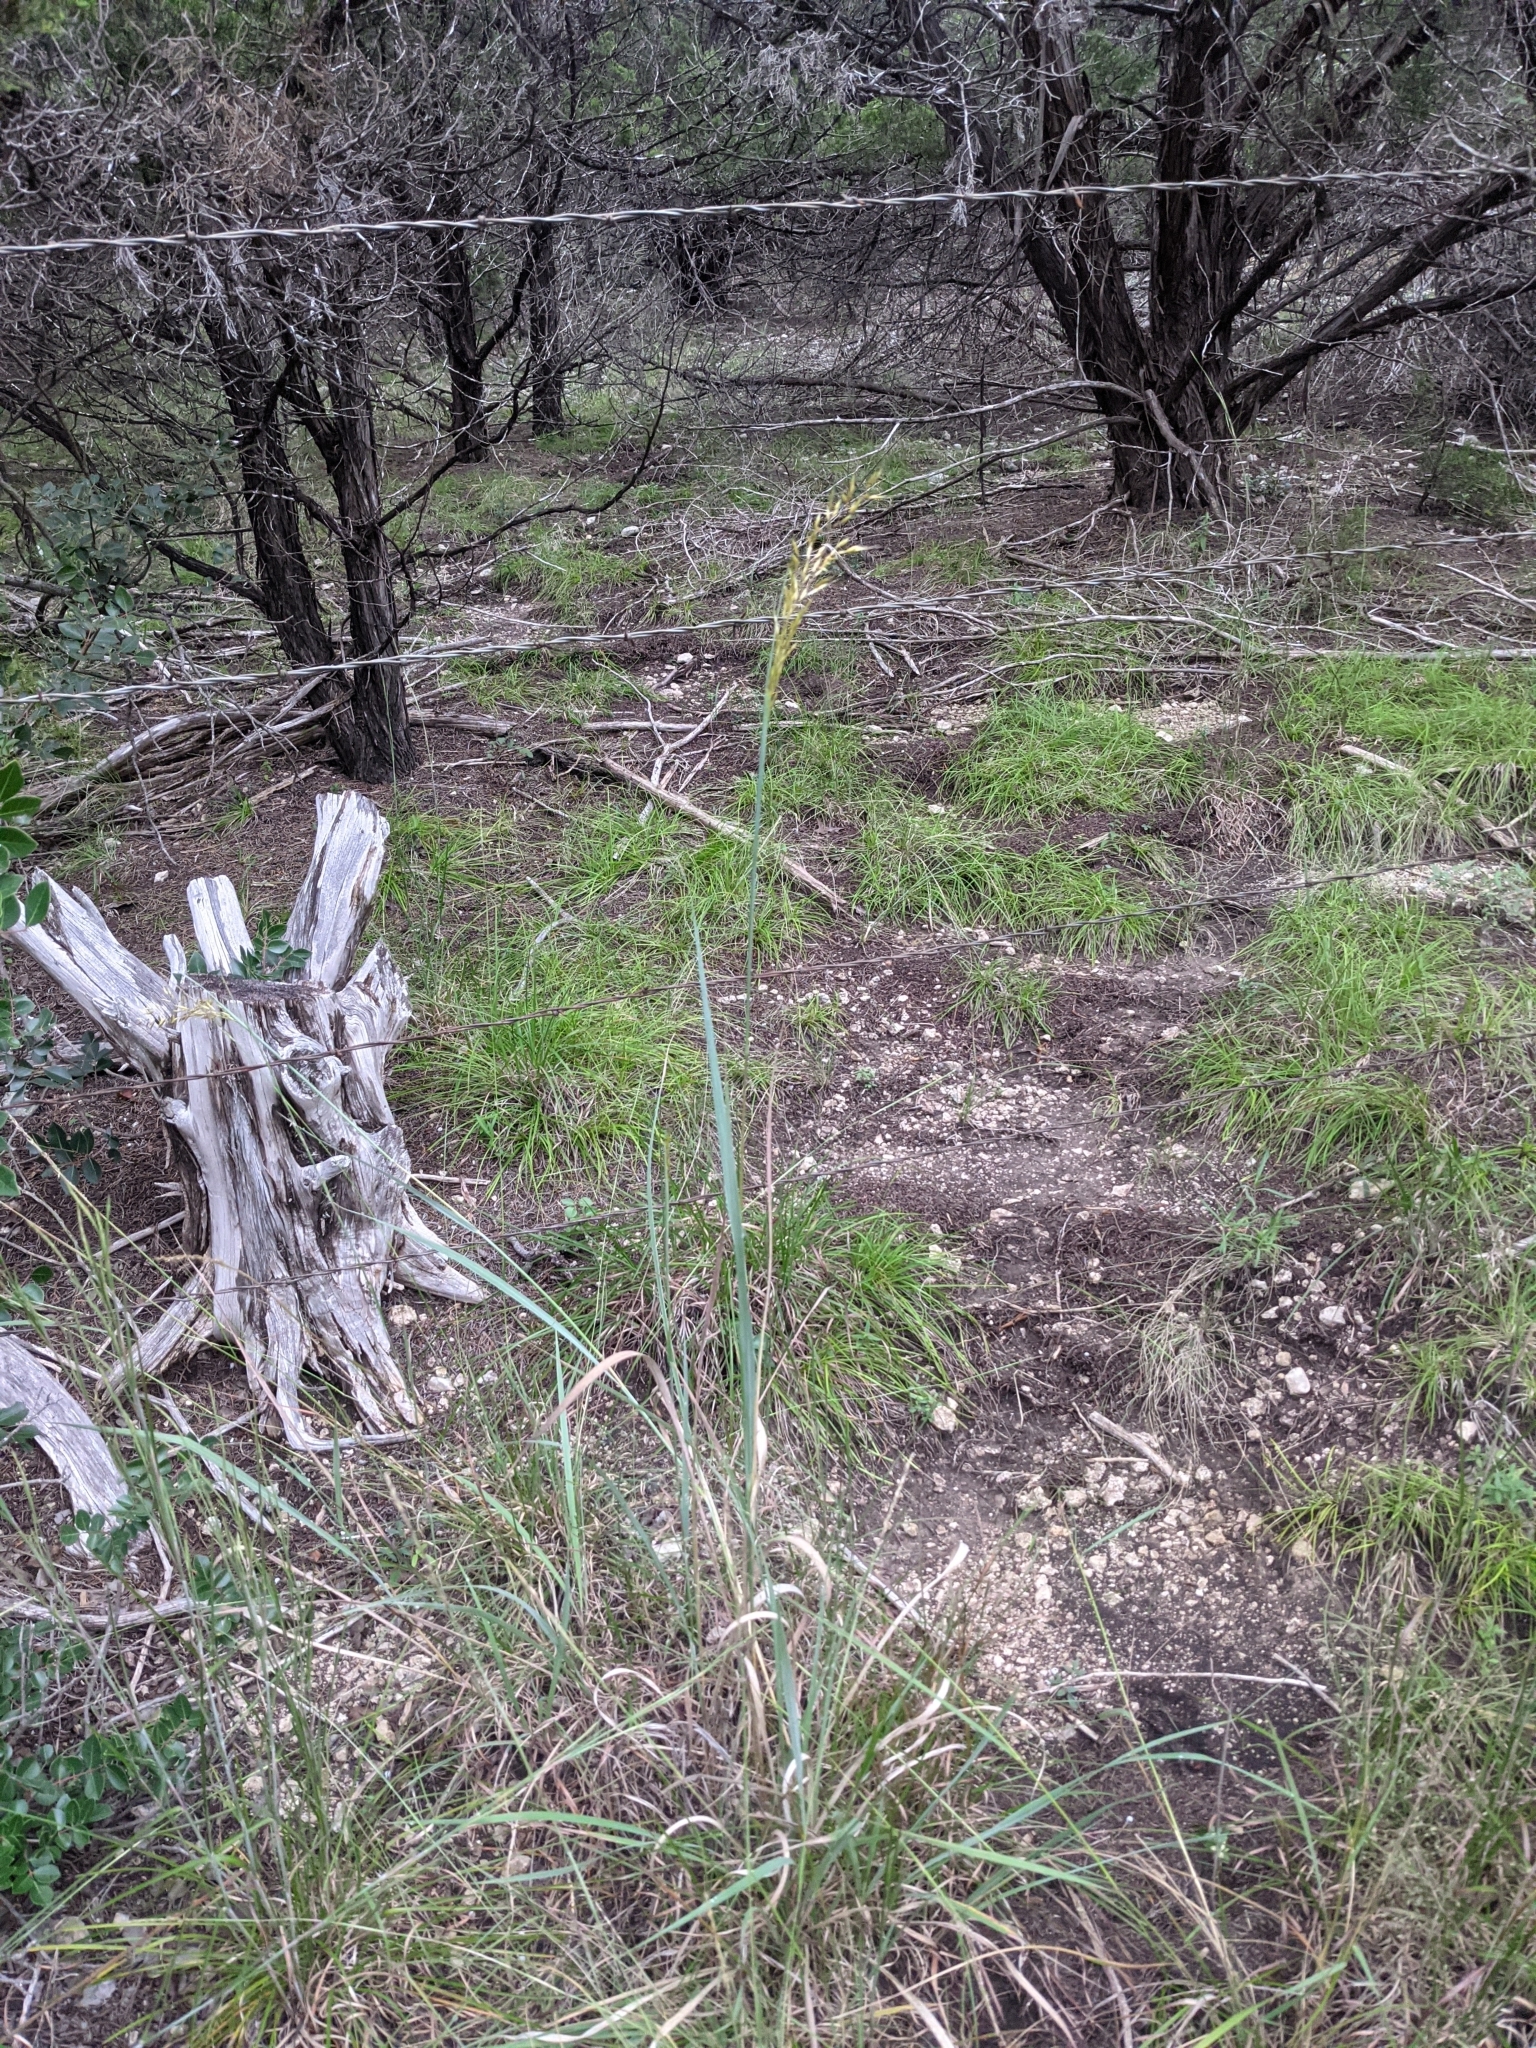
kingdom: Plantae
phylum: Tracheophyta
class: Liliopsida
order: Poales
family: Poaceae
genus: Sorghastrum
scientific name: Sorghastrum nutans
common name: Indian grass
